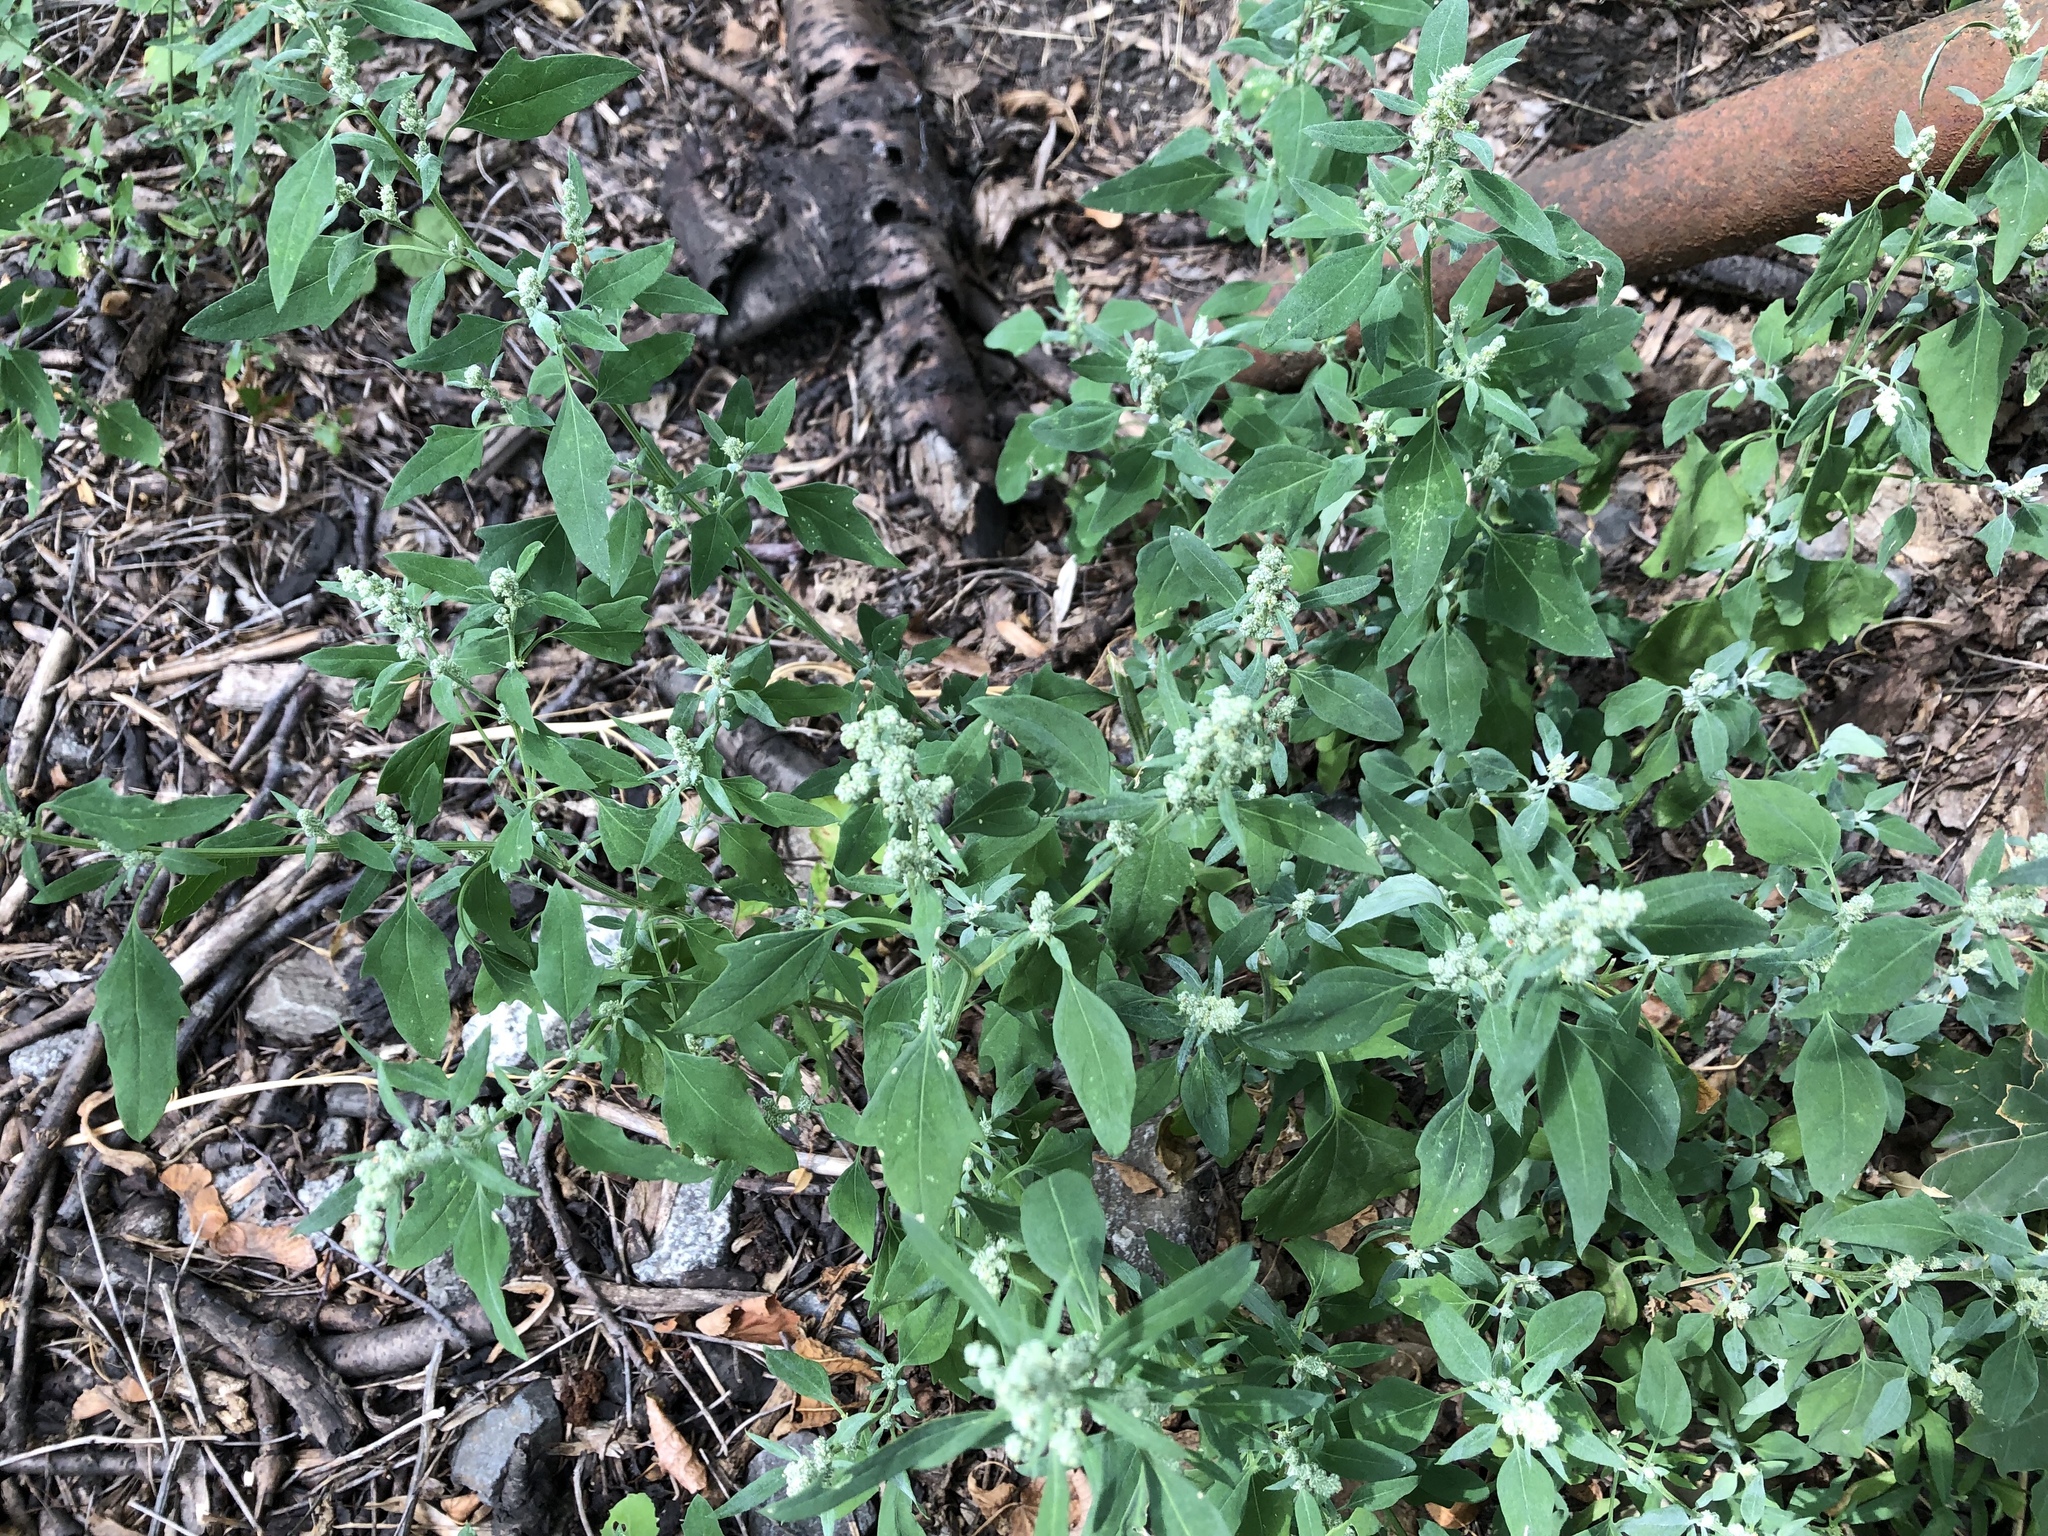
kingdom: Plantae
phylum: Tracheophyta
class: Magnoliopsida
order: Caryophyllales
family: Amaranthaceae
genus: Chenopodium
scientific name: Chenopodium album
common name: Fat-hen
